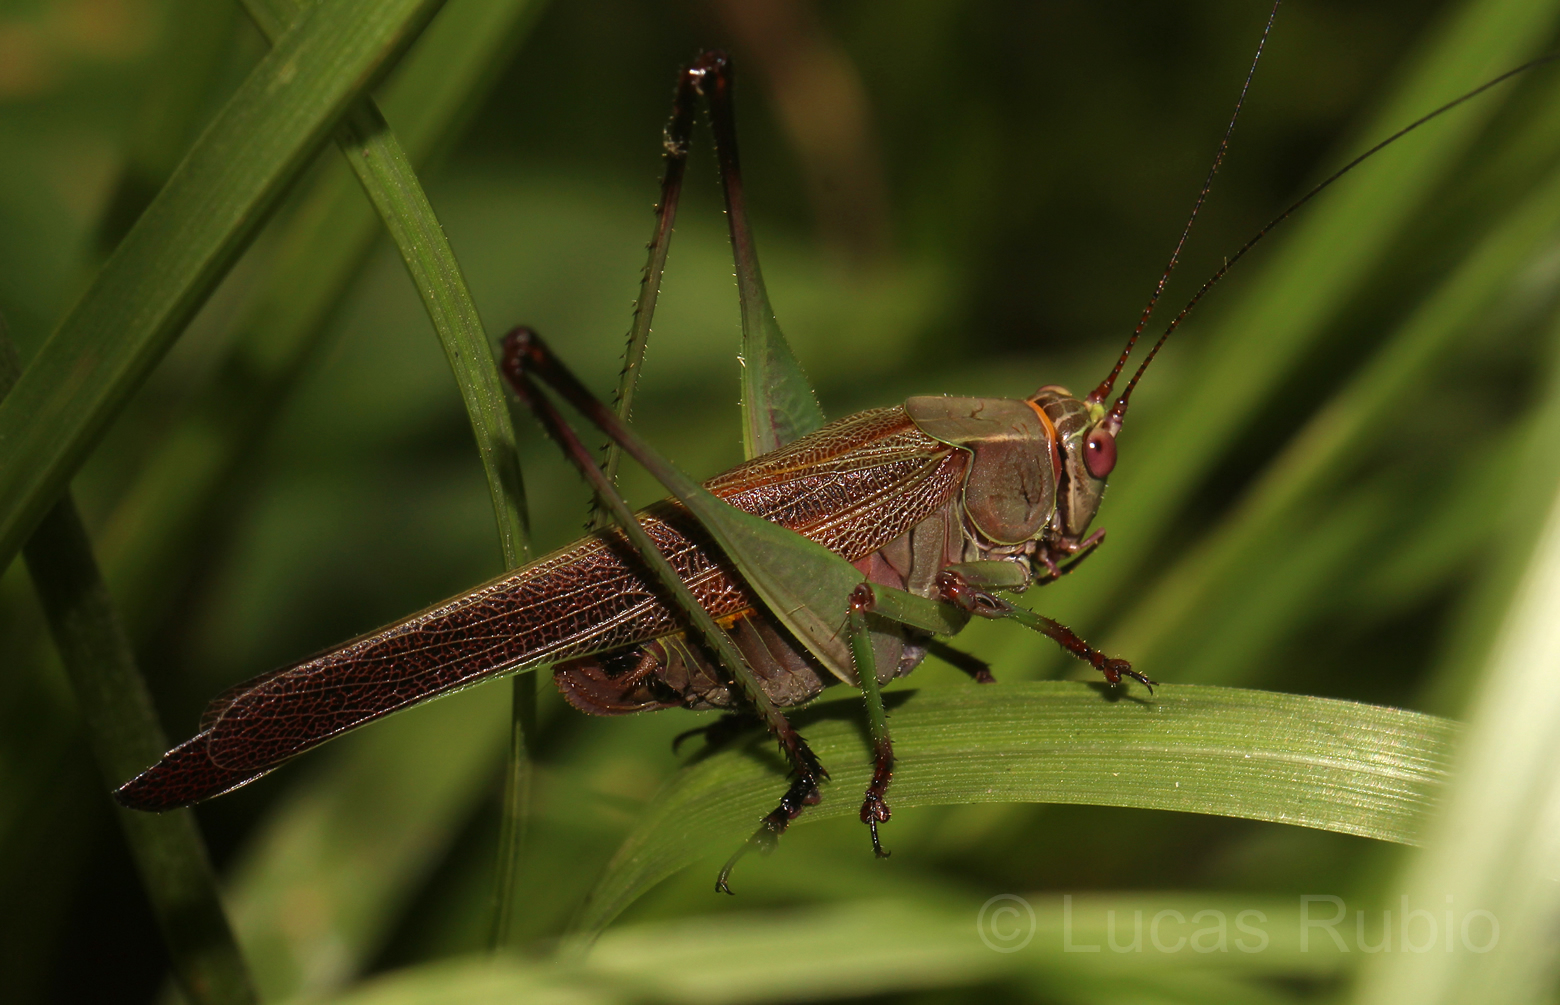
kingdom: Animalia
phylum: Arthropoda
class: Insecta
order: Orthoptera
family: Tettigoniidae
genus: Enthephippion
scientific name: Enthephippion borellii
